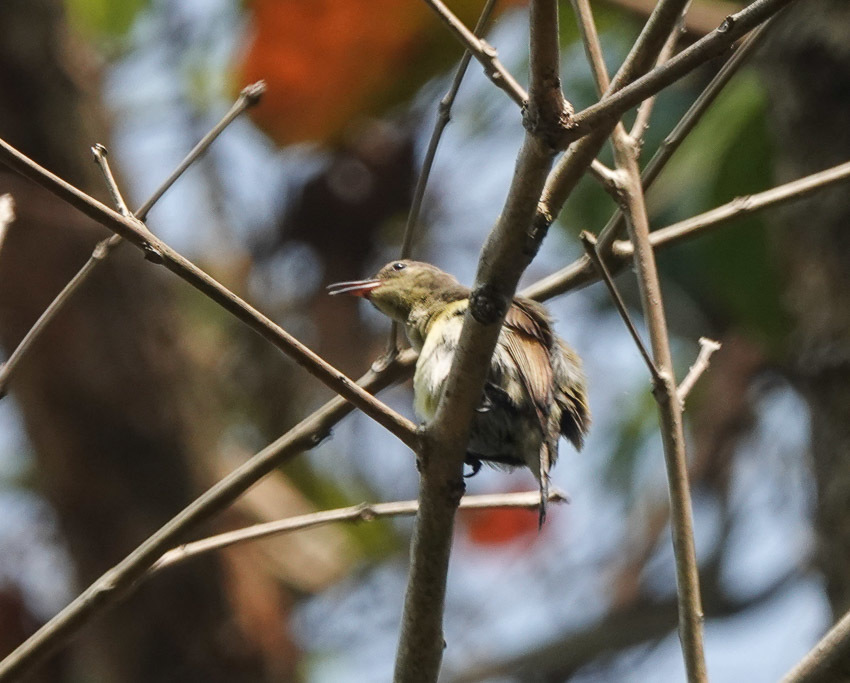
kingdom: Animalia
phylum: Chordata
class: Aves
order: Passeriformes
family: Nectariniidae
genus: Leptocoma
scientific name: Leptocoma brasiliana
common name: Van hasselt's sunbird
